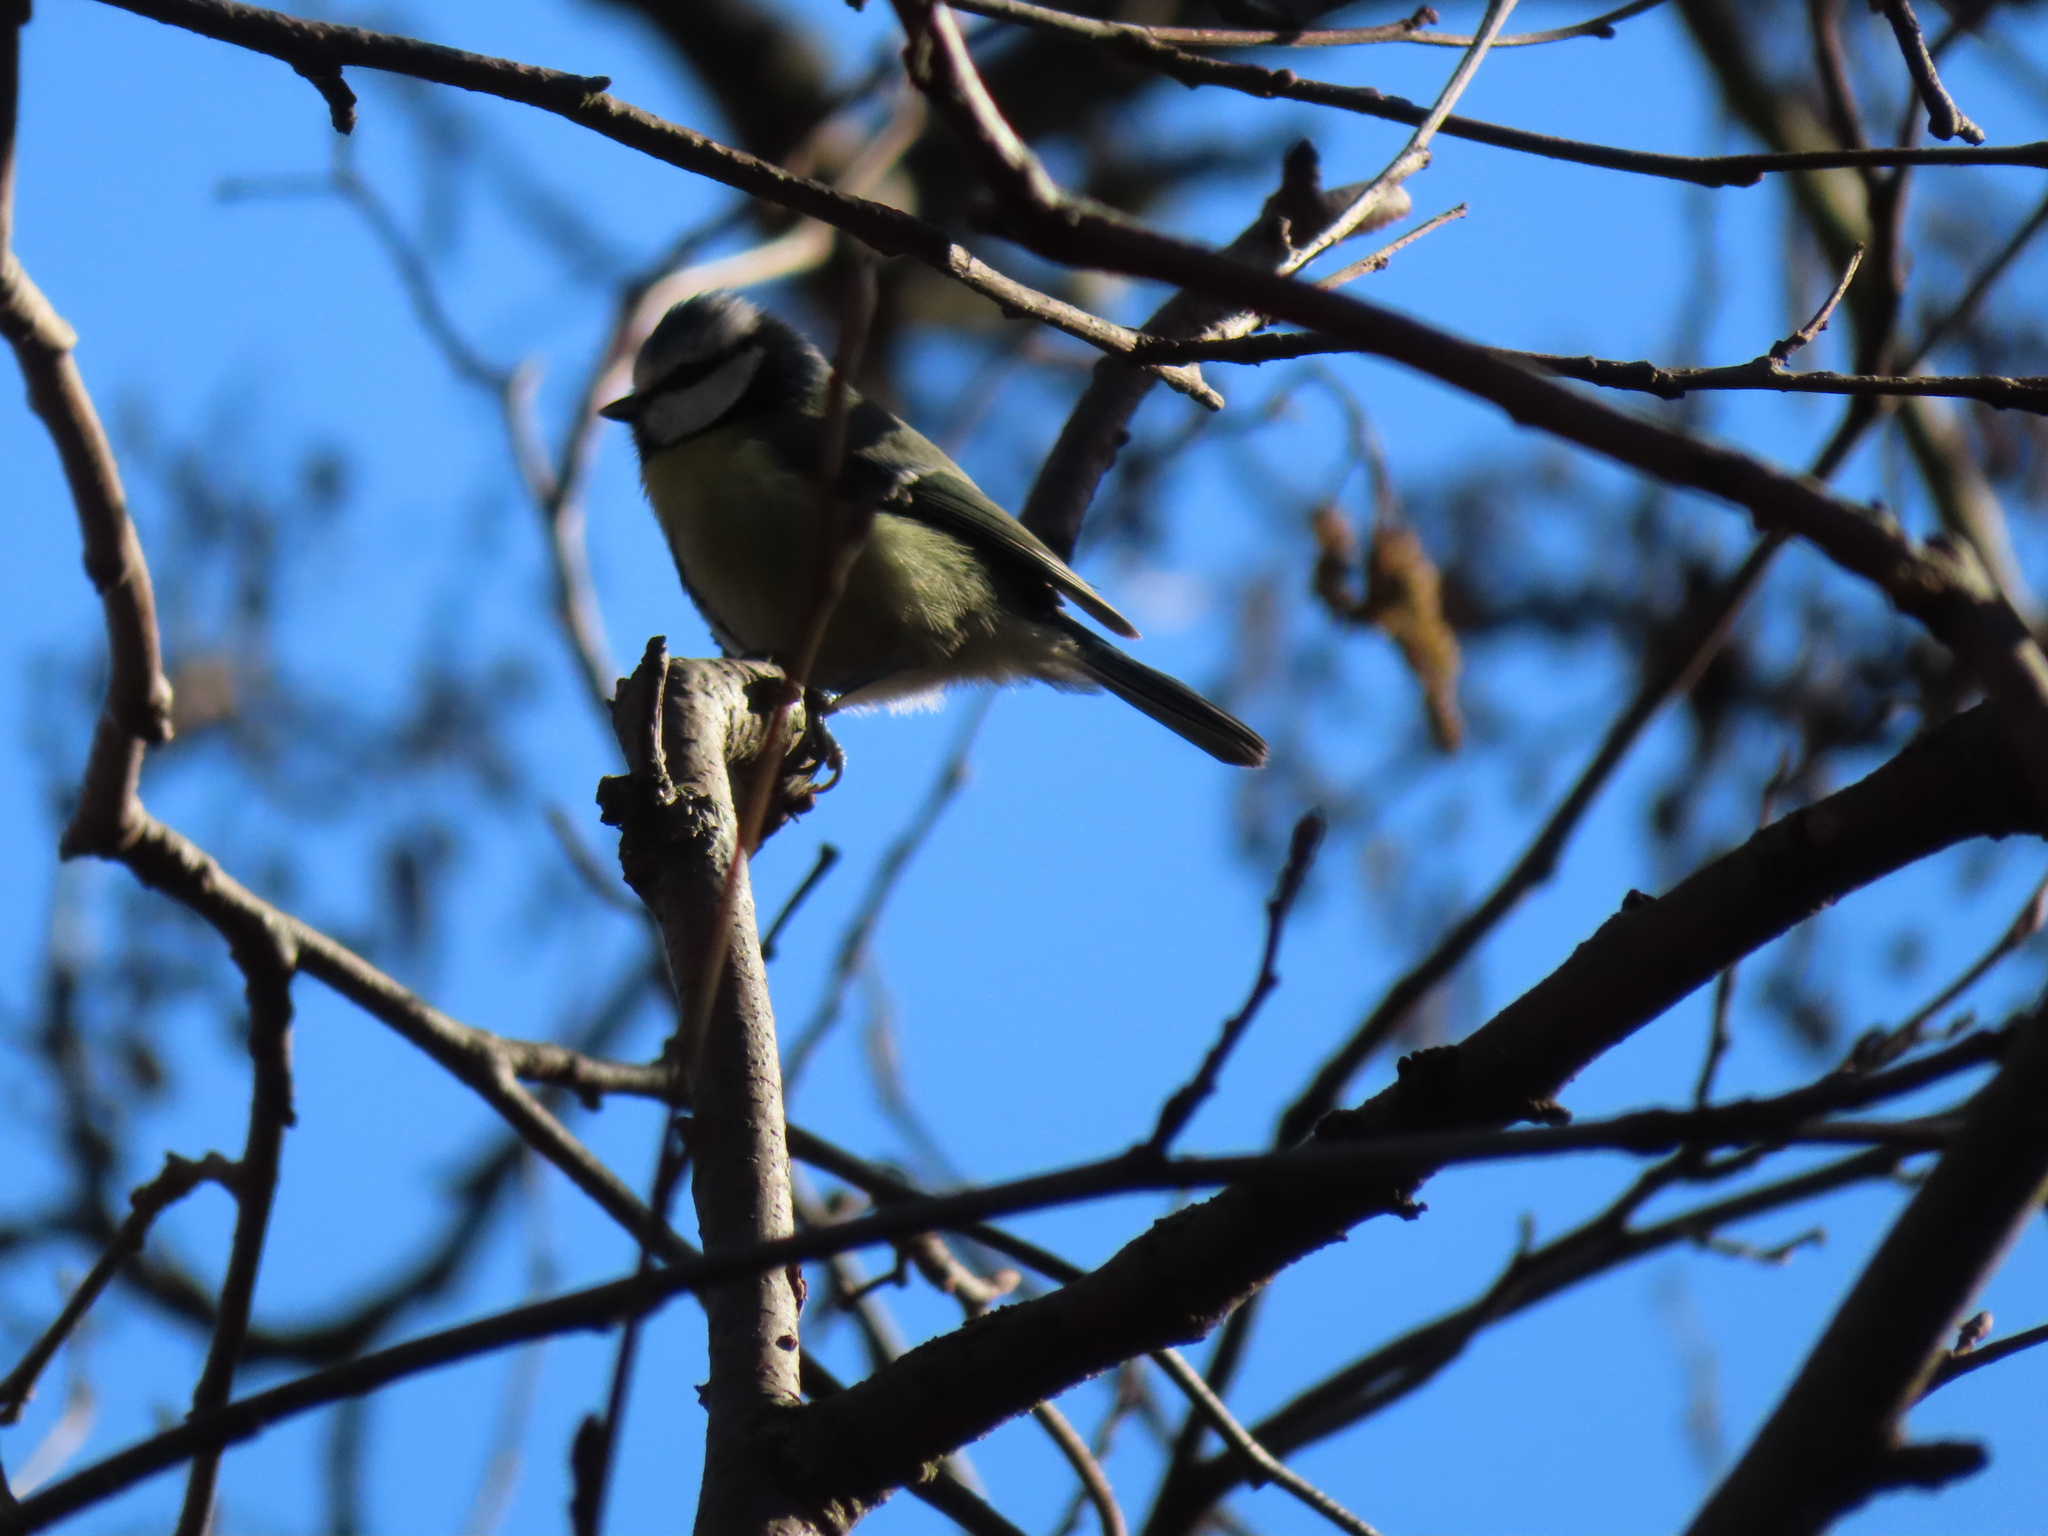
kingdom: Animalia
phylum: Chordata
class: Aves
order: Passeriformes
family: Paridae
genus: Cyanistes
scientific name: Cyanistes caeruleus
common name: Eurasian blue tit
